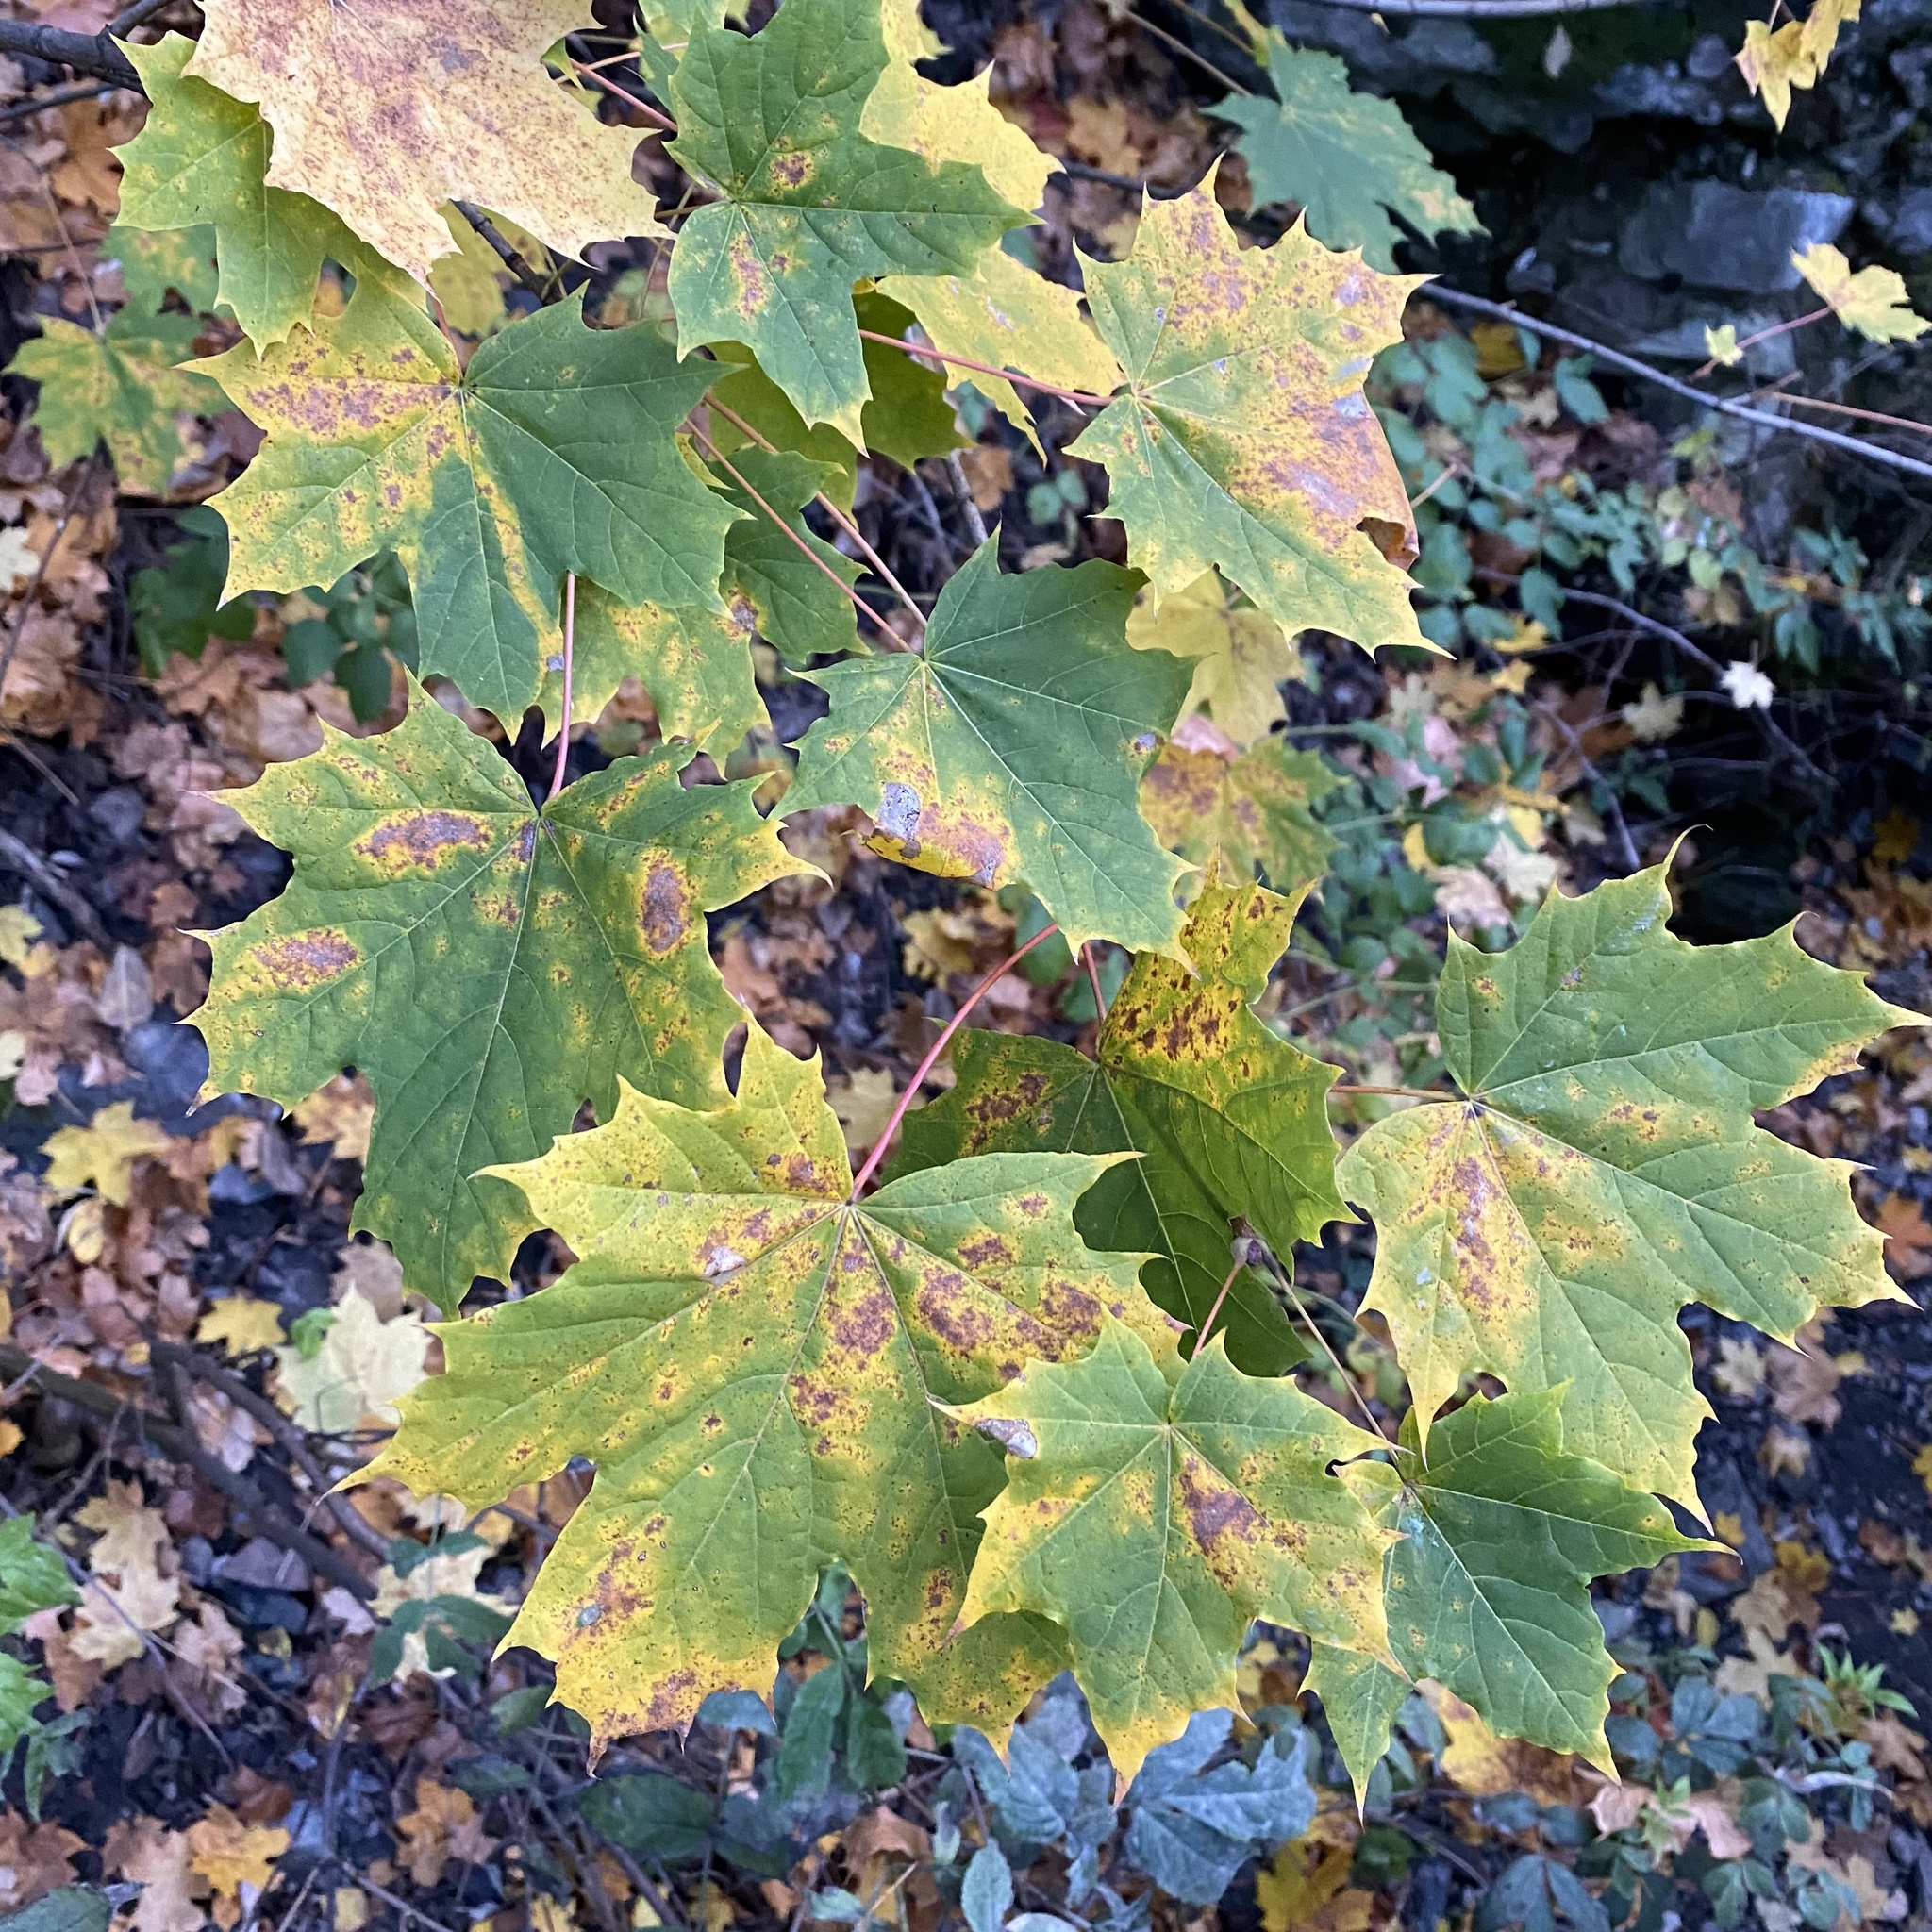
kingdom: Plantae
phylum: Tracheophyta
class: Magnoliopsida
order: Sapindales
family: Sapindaceae
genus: Acer
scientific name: Acer platanoides
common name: Norway maple
